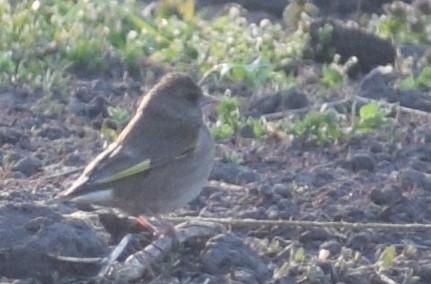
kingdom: Plantae
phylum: Tracheophyta
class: Liliopsida
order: Poales
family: Poaceae
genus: Chloris
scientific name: Chloris chloris
